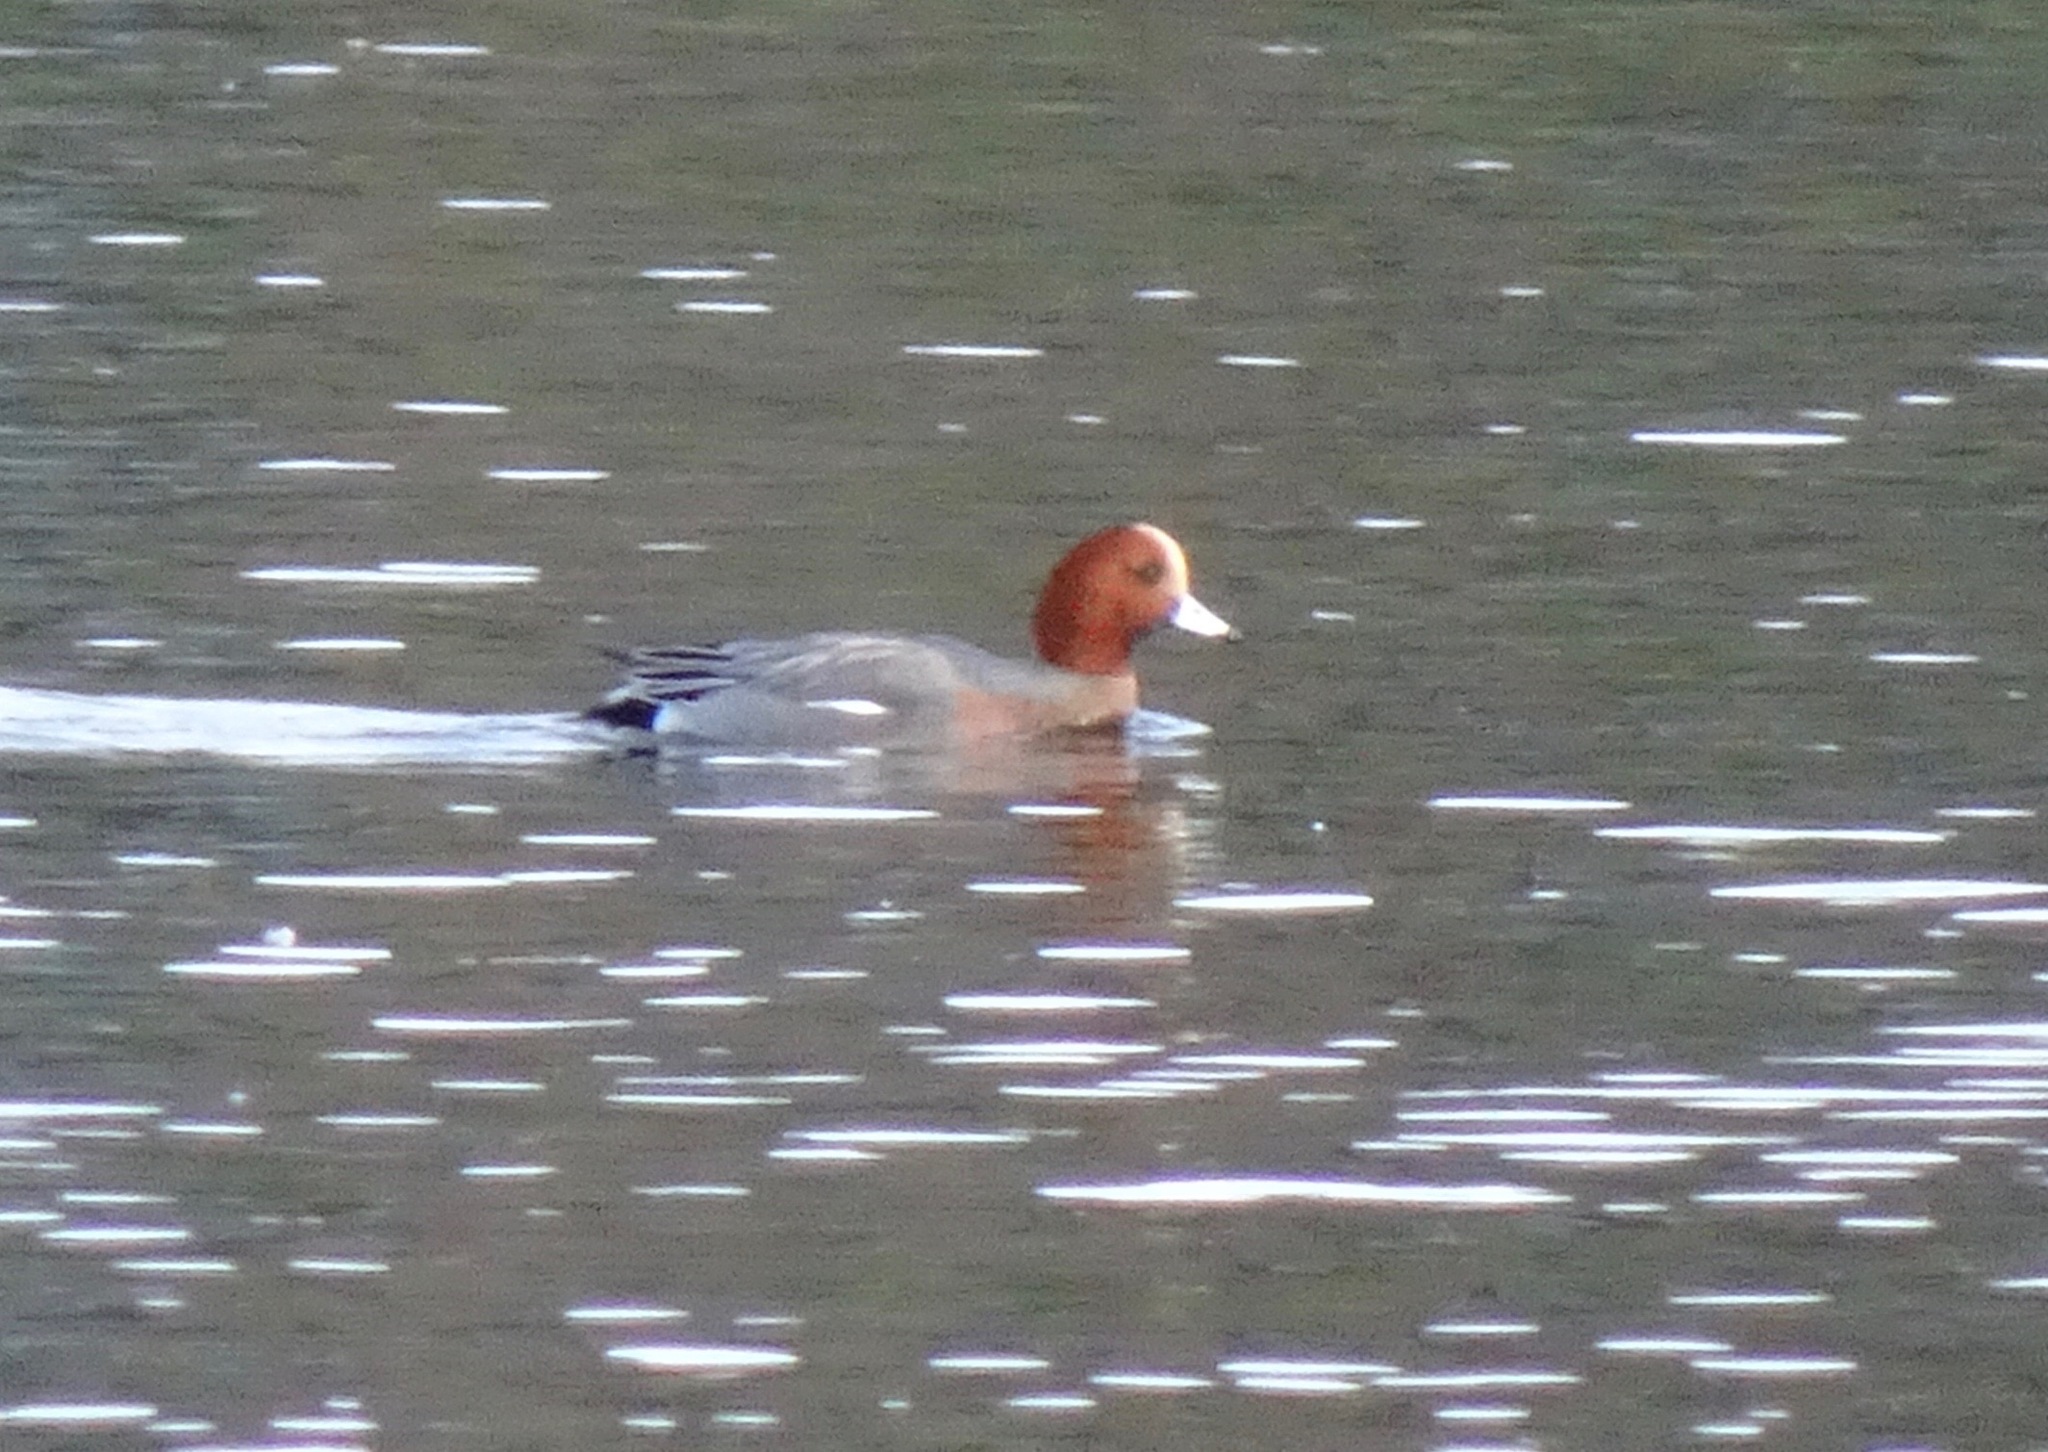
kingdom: Animalia
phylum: Chordata
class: Aves
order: Anseriformes
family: Anatidae
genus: Mareca
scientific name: Mareca penelope
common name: Eurasian wigeon
